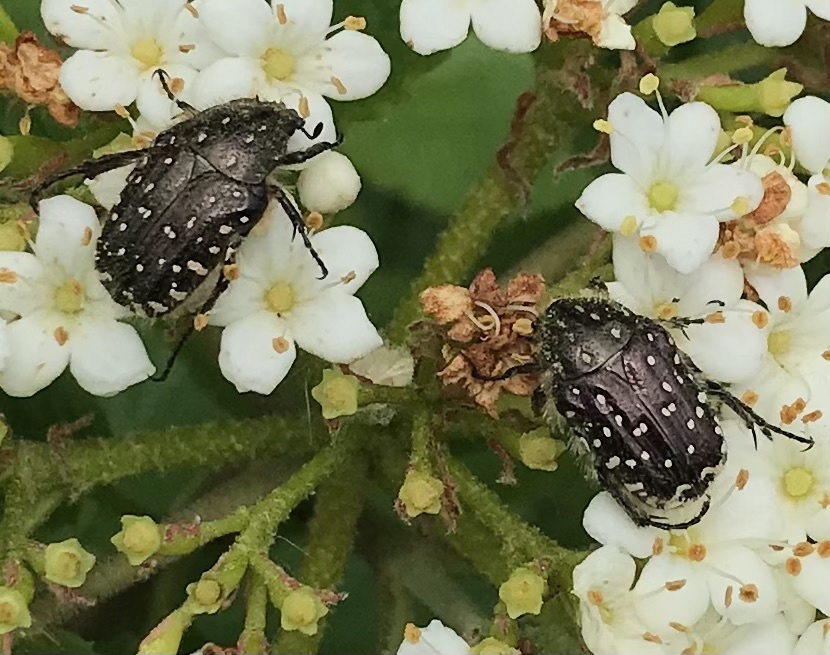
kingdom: Animalia
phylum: Arthropoda
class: Insecta
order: Coleoptera
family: Scarabaeidae
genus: Oxythyrea
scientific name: Oxythyrea funesta
